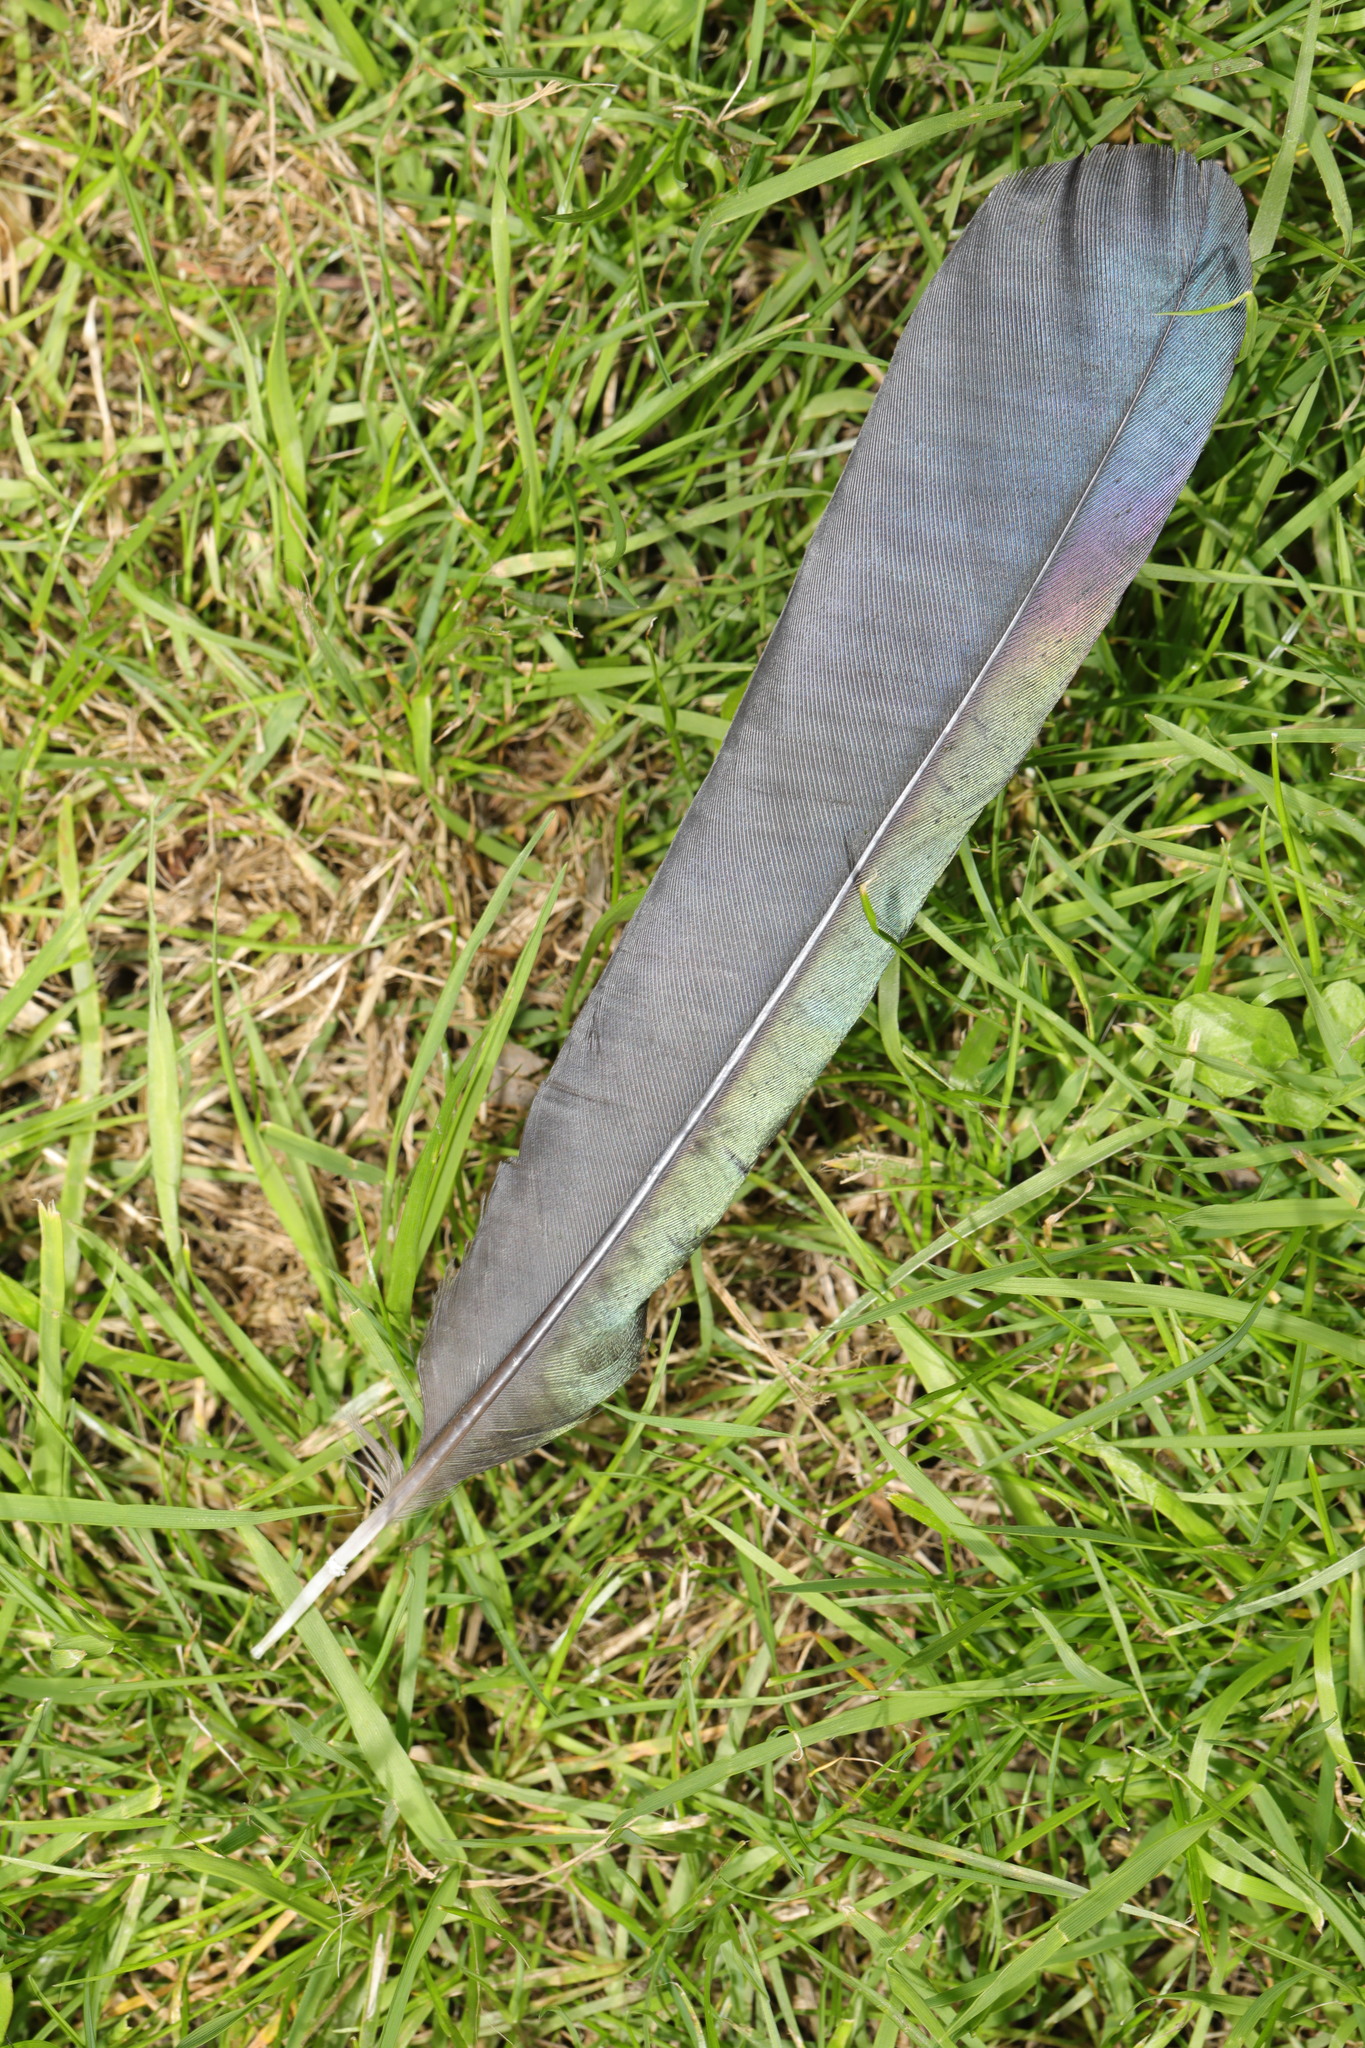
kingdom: Animalia
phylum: Chordata
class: Aves
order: Passeriformes
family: Corvidae
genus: Pica
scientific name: Pica pica
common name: Eurasian magpie
